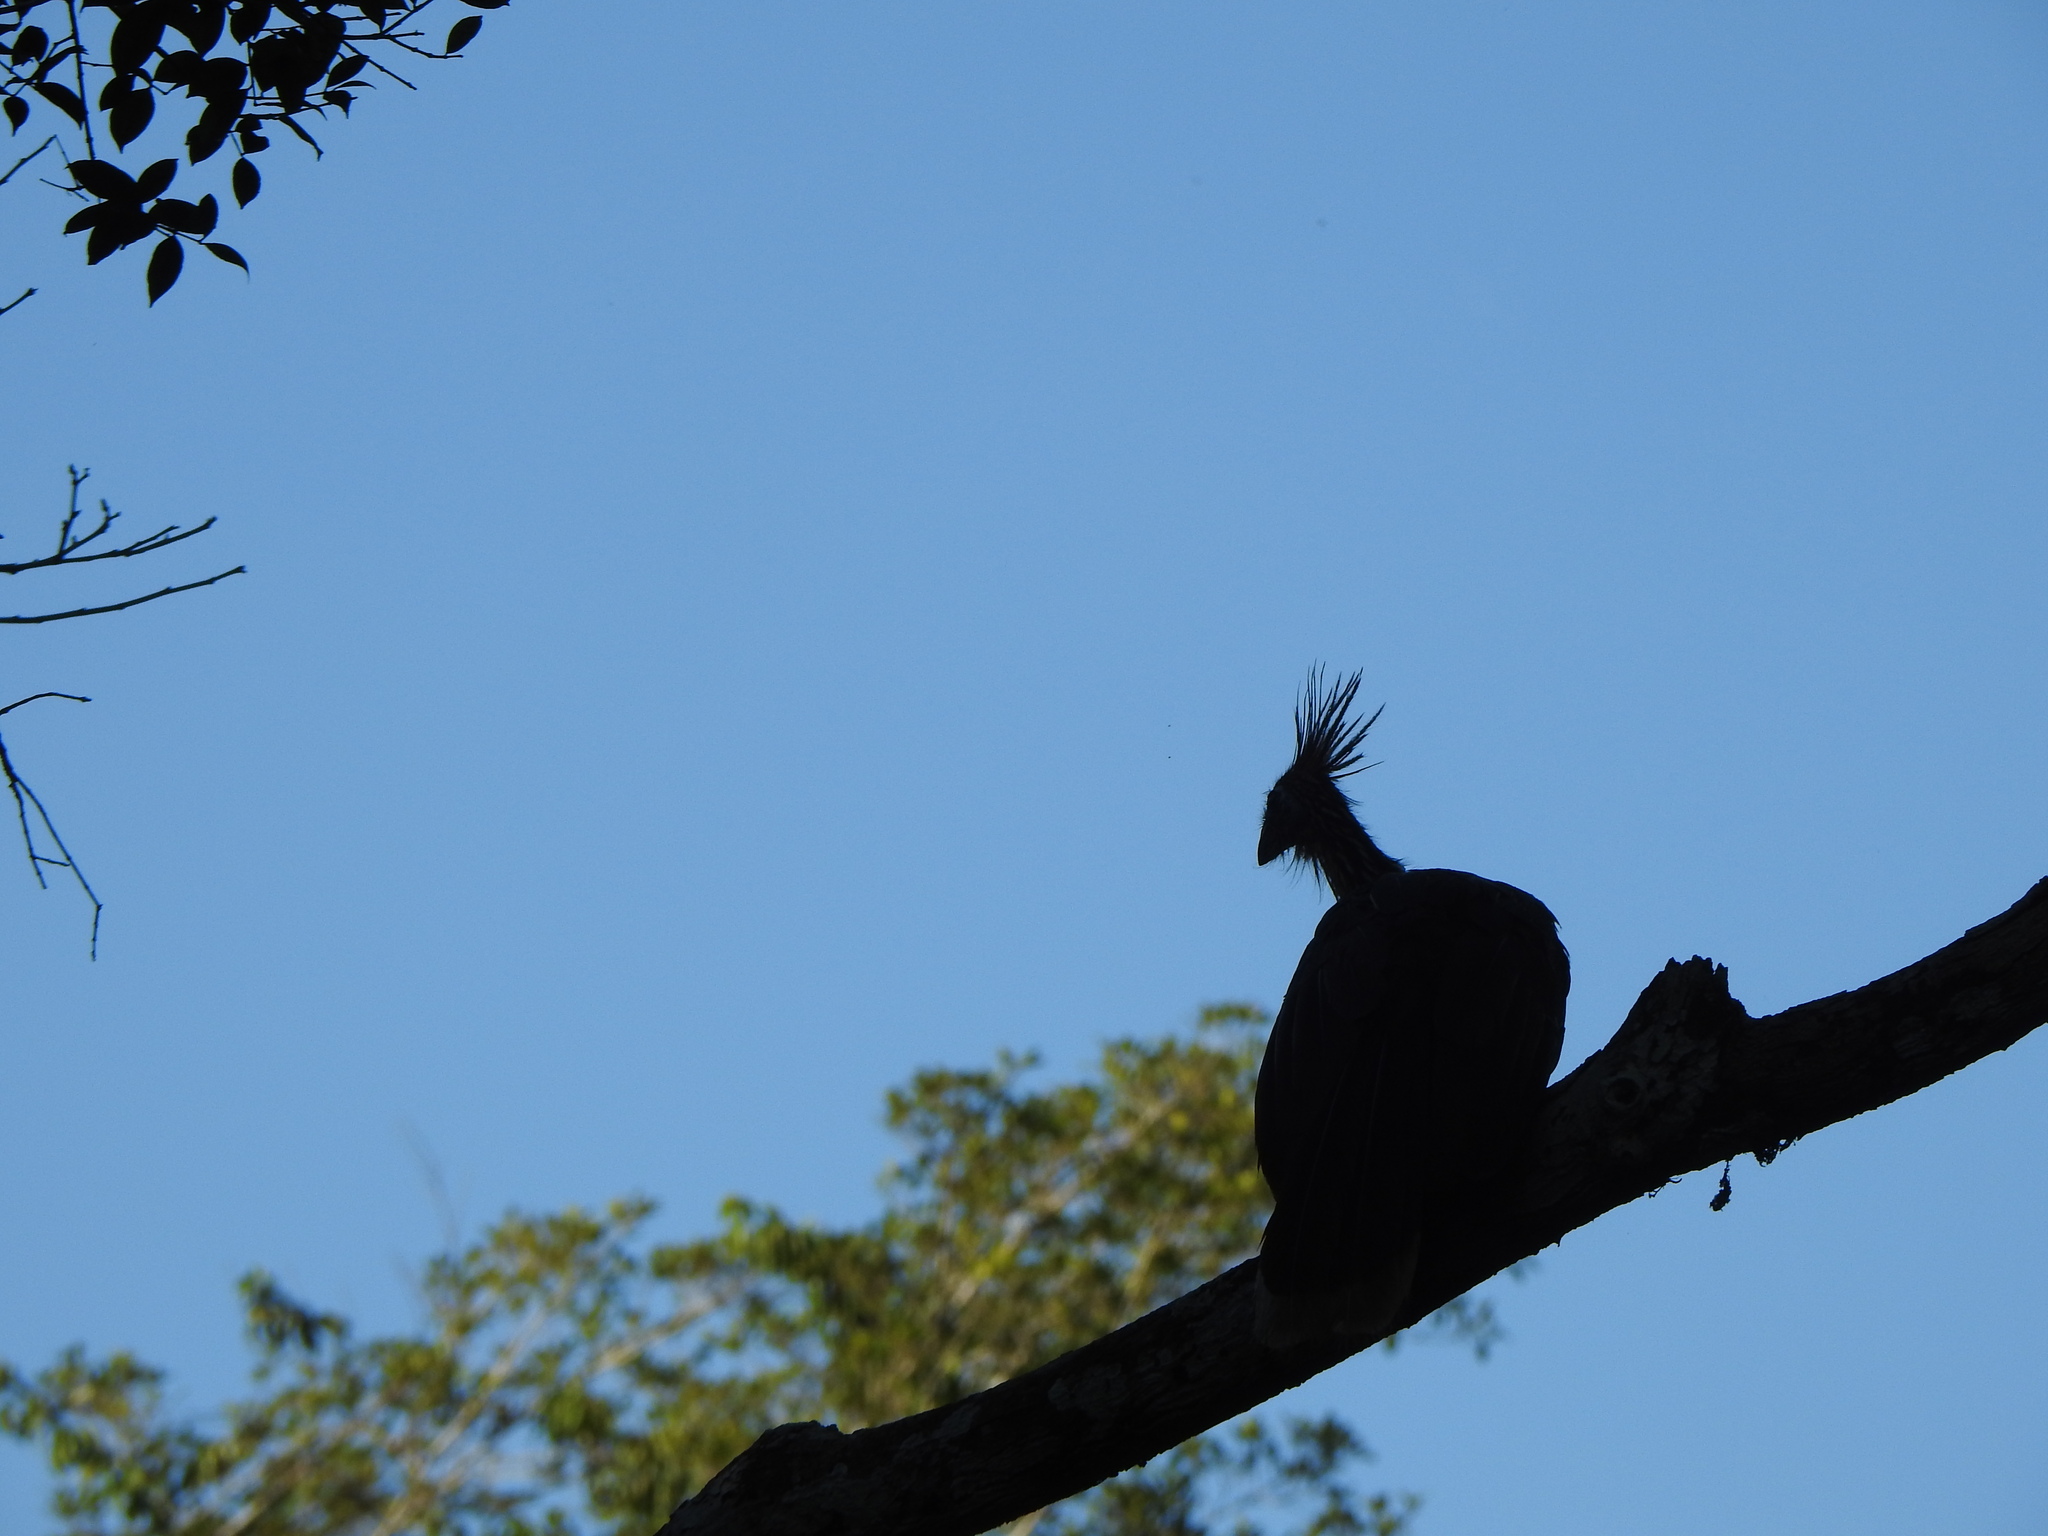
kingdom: Animalia
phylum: Chordata
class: Aves
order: Opisthocomiformes
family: Opisthocomidae
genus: Opisthocomus
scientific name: Opisthocomus hoazin
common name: Hoatzin
